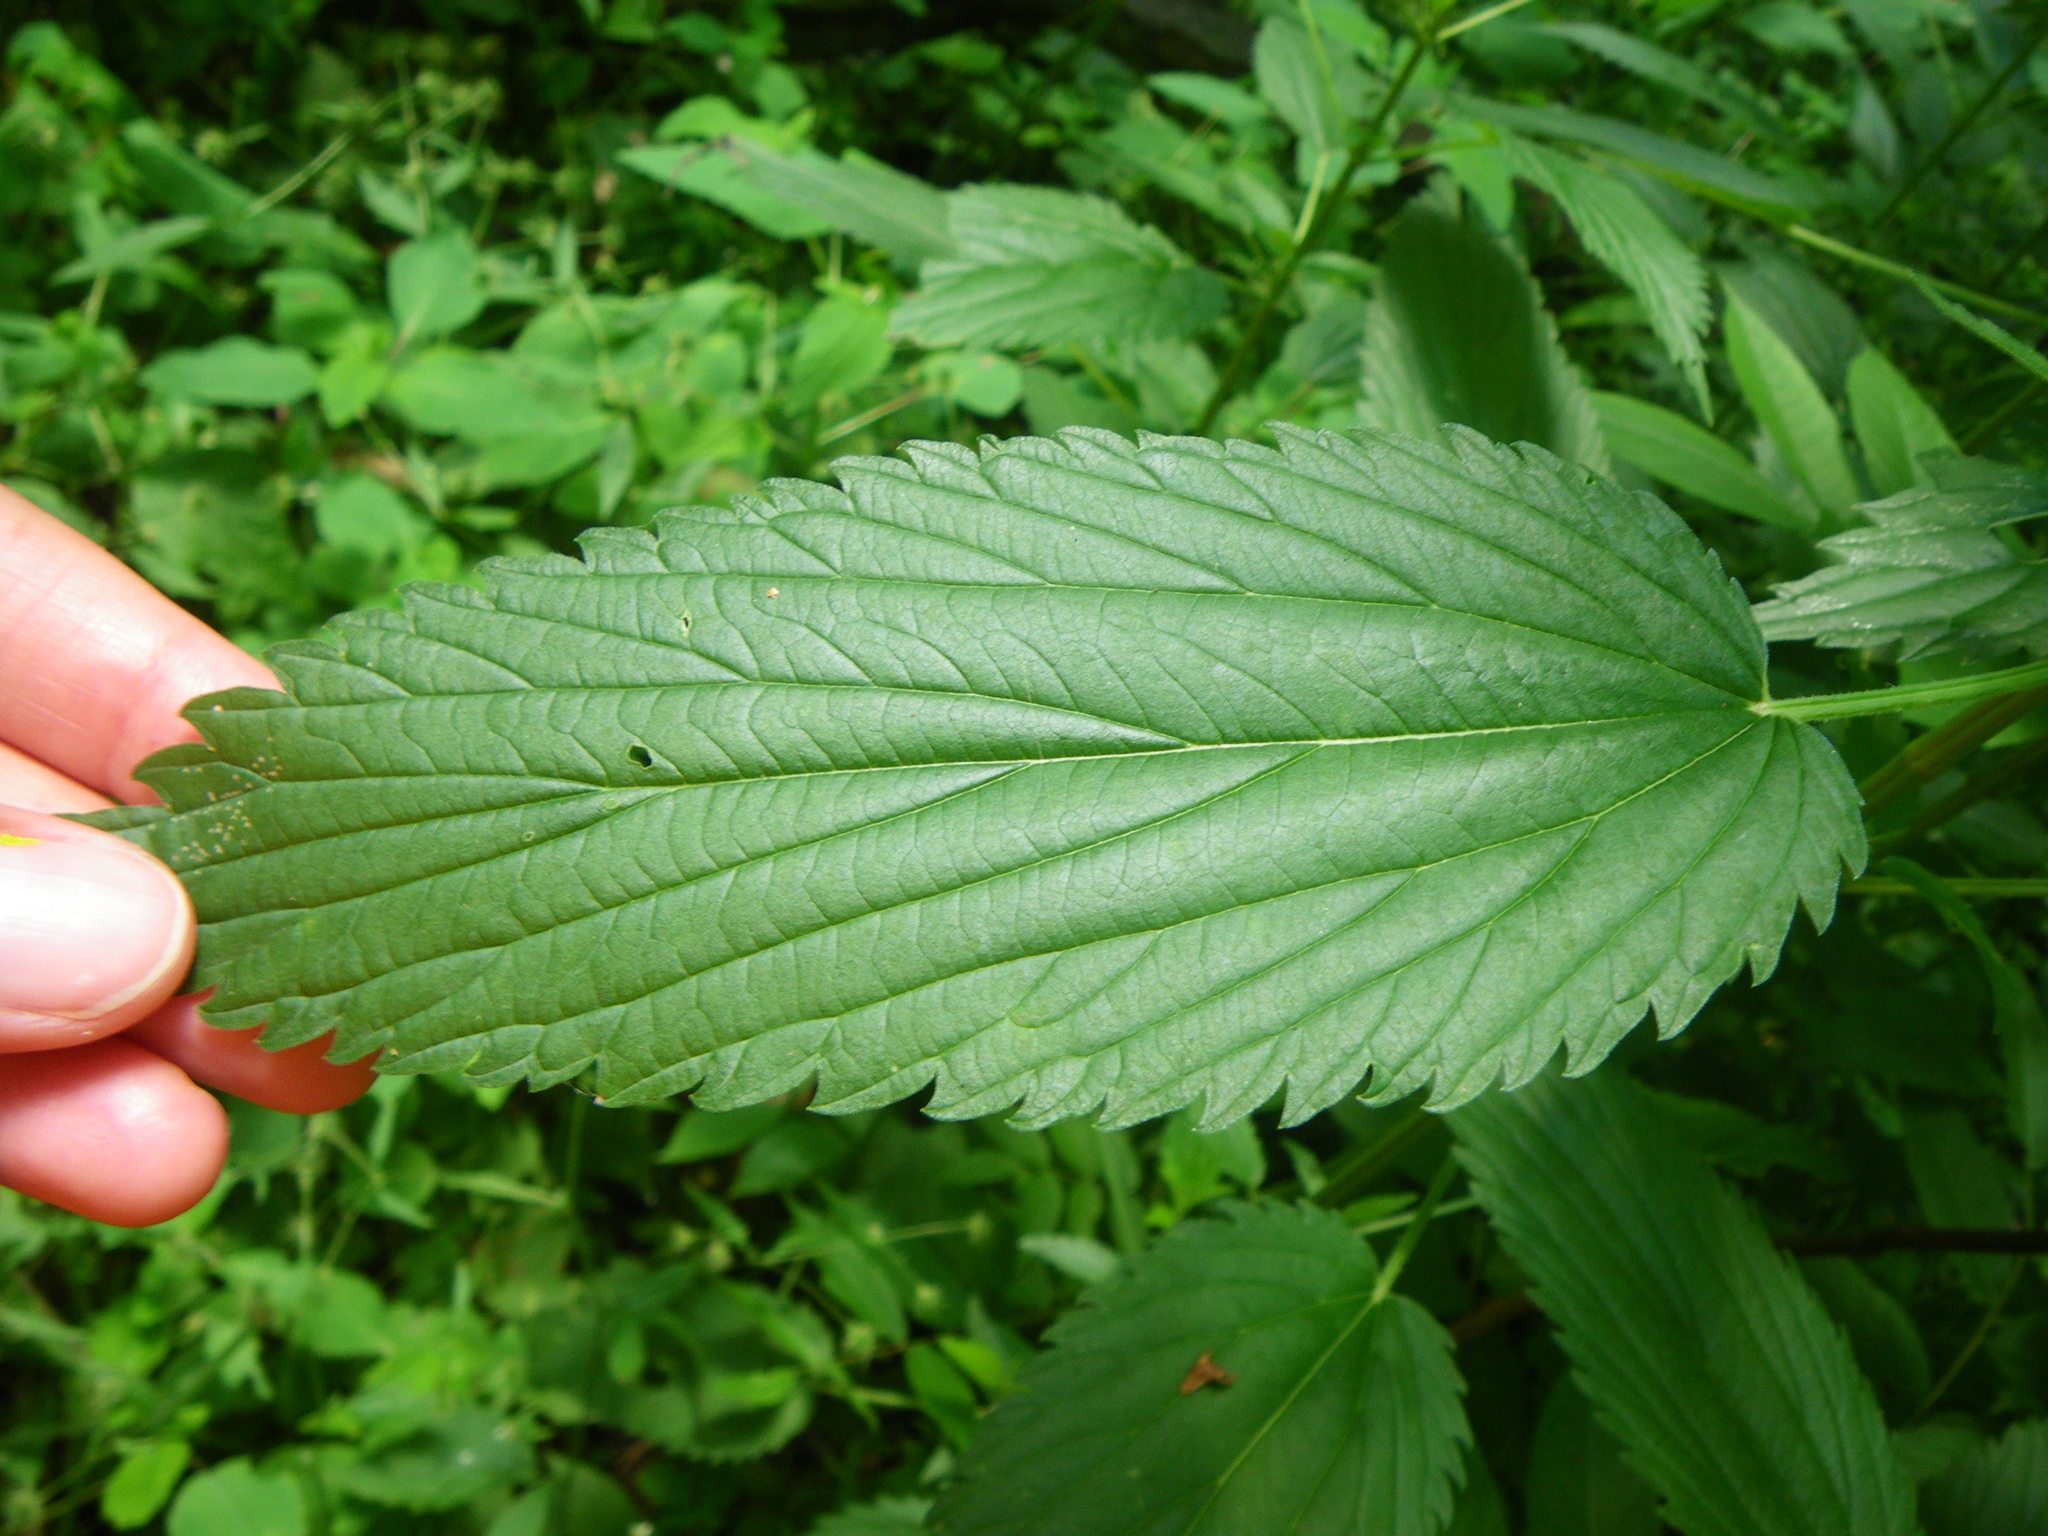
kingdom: Plantae
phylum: Tracheophyta
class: Magnoliopsida
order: Rosales
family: Urticaceae
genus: Urtica
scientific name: Urtica dioica
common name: Common nettle
